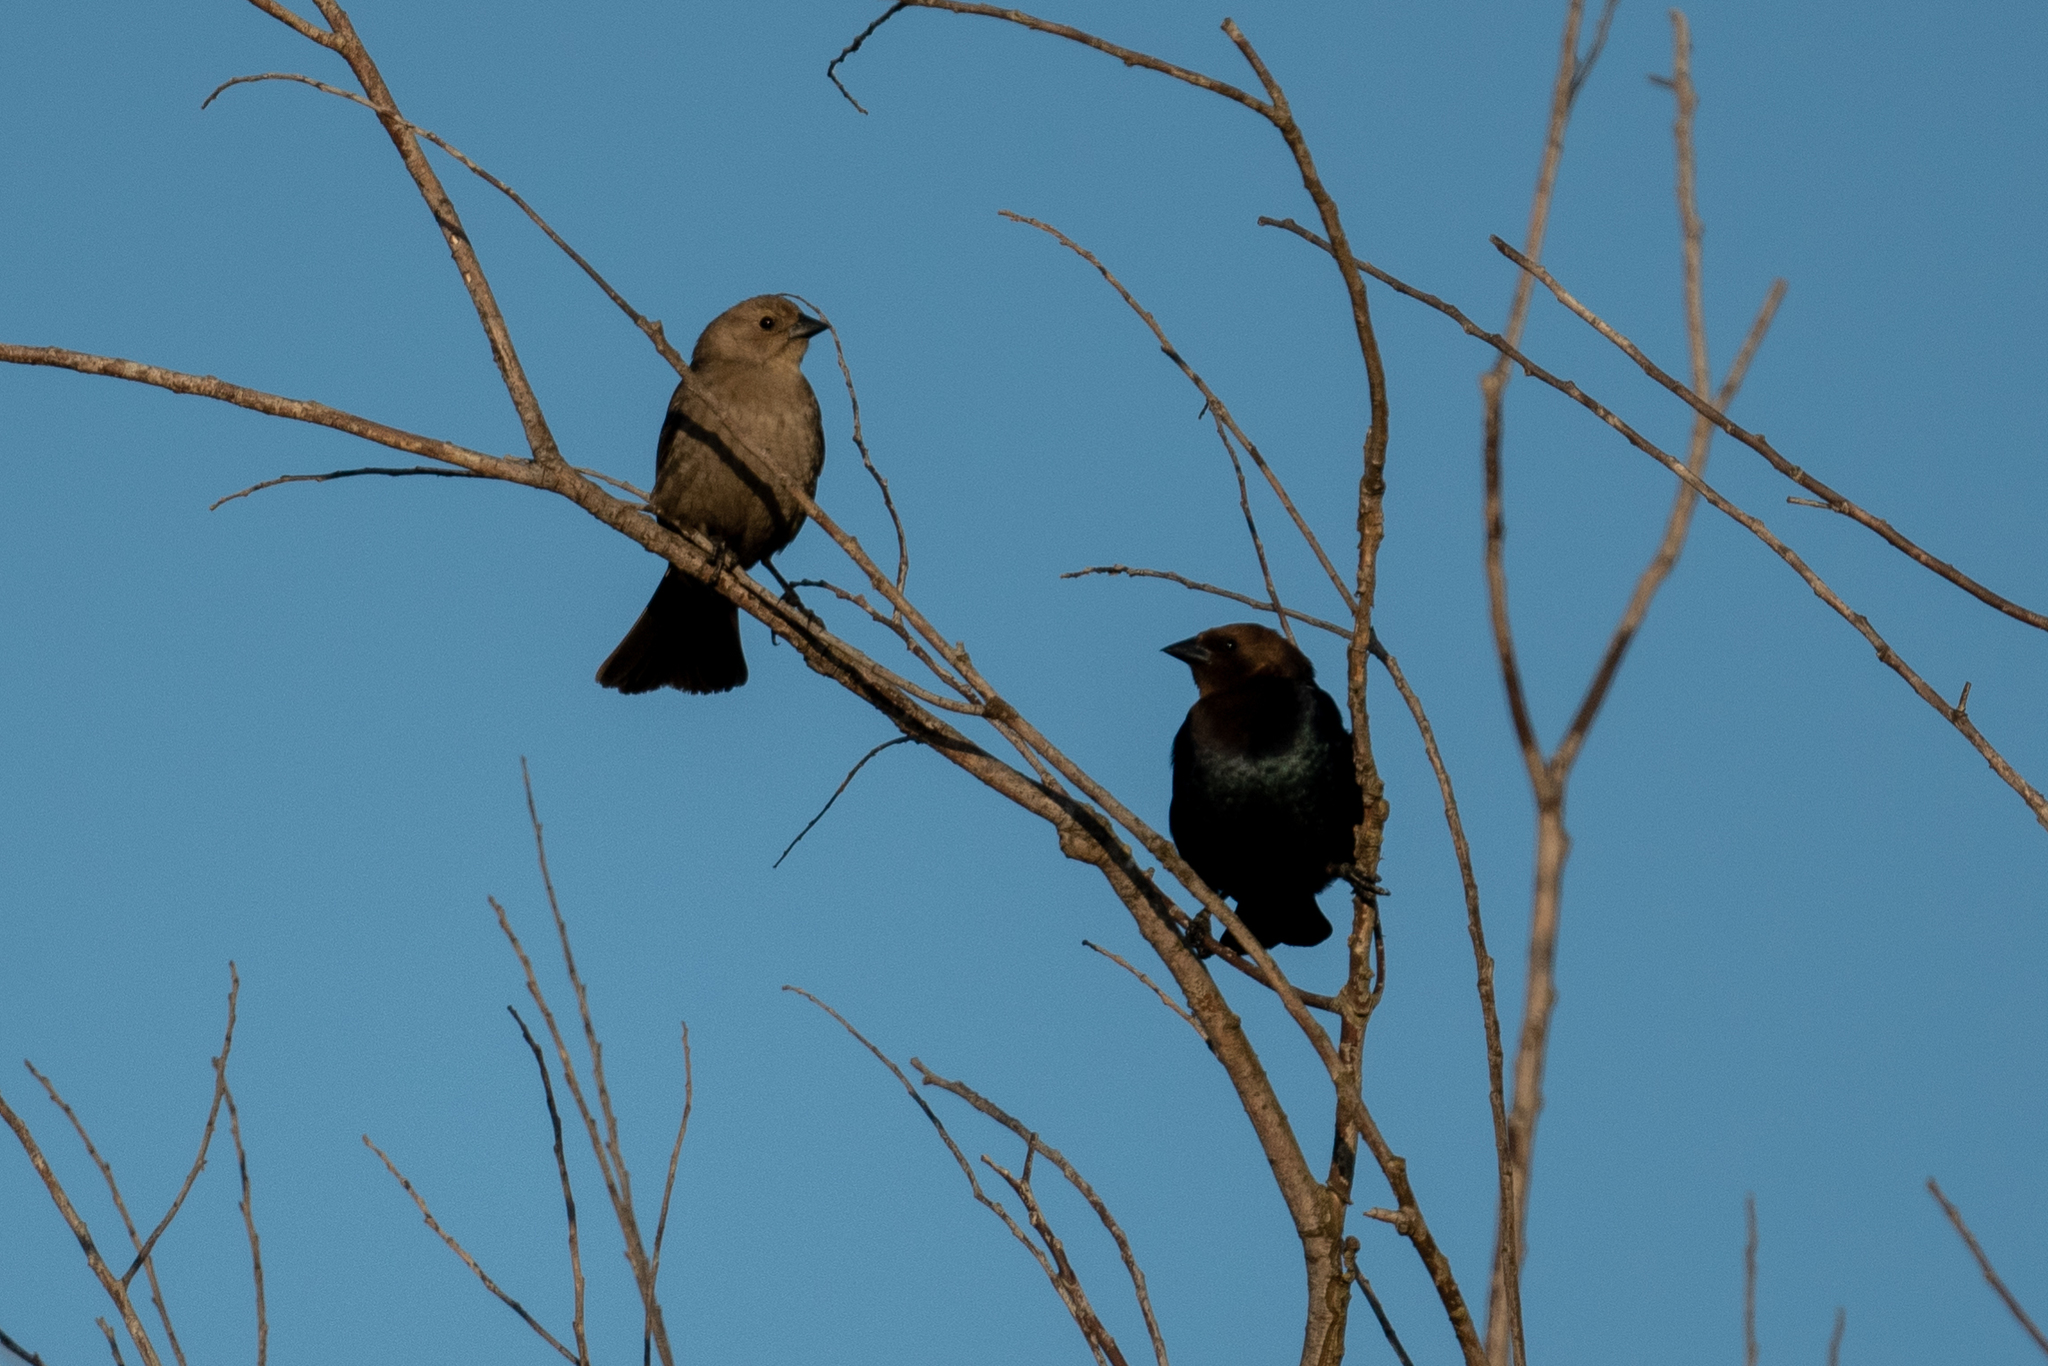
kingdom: Animalia
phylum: Chordata
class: Aves
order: Passeriformes
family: Icteridae
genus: Molothrus
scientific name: Molothrus ater
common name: Brown-headed cowbird
